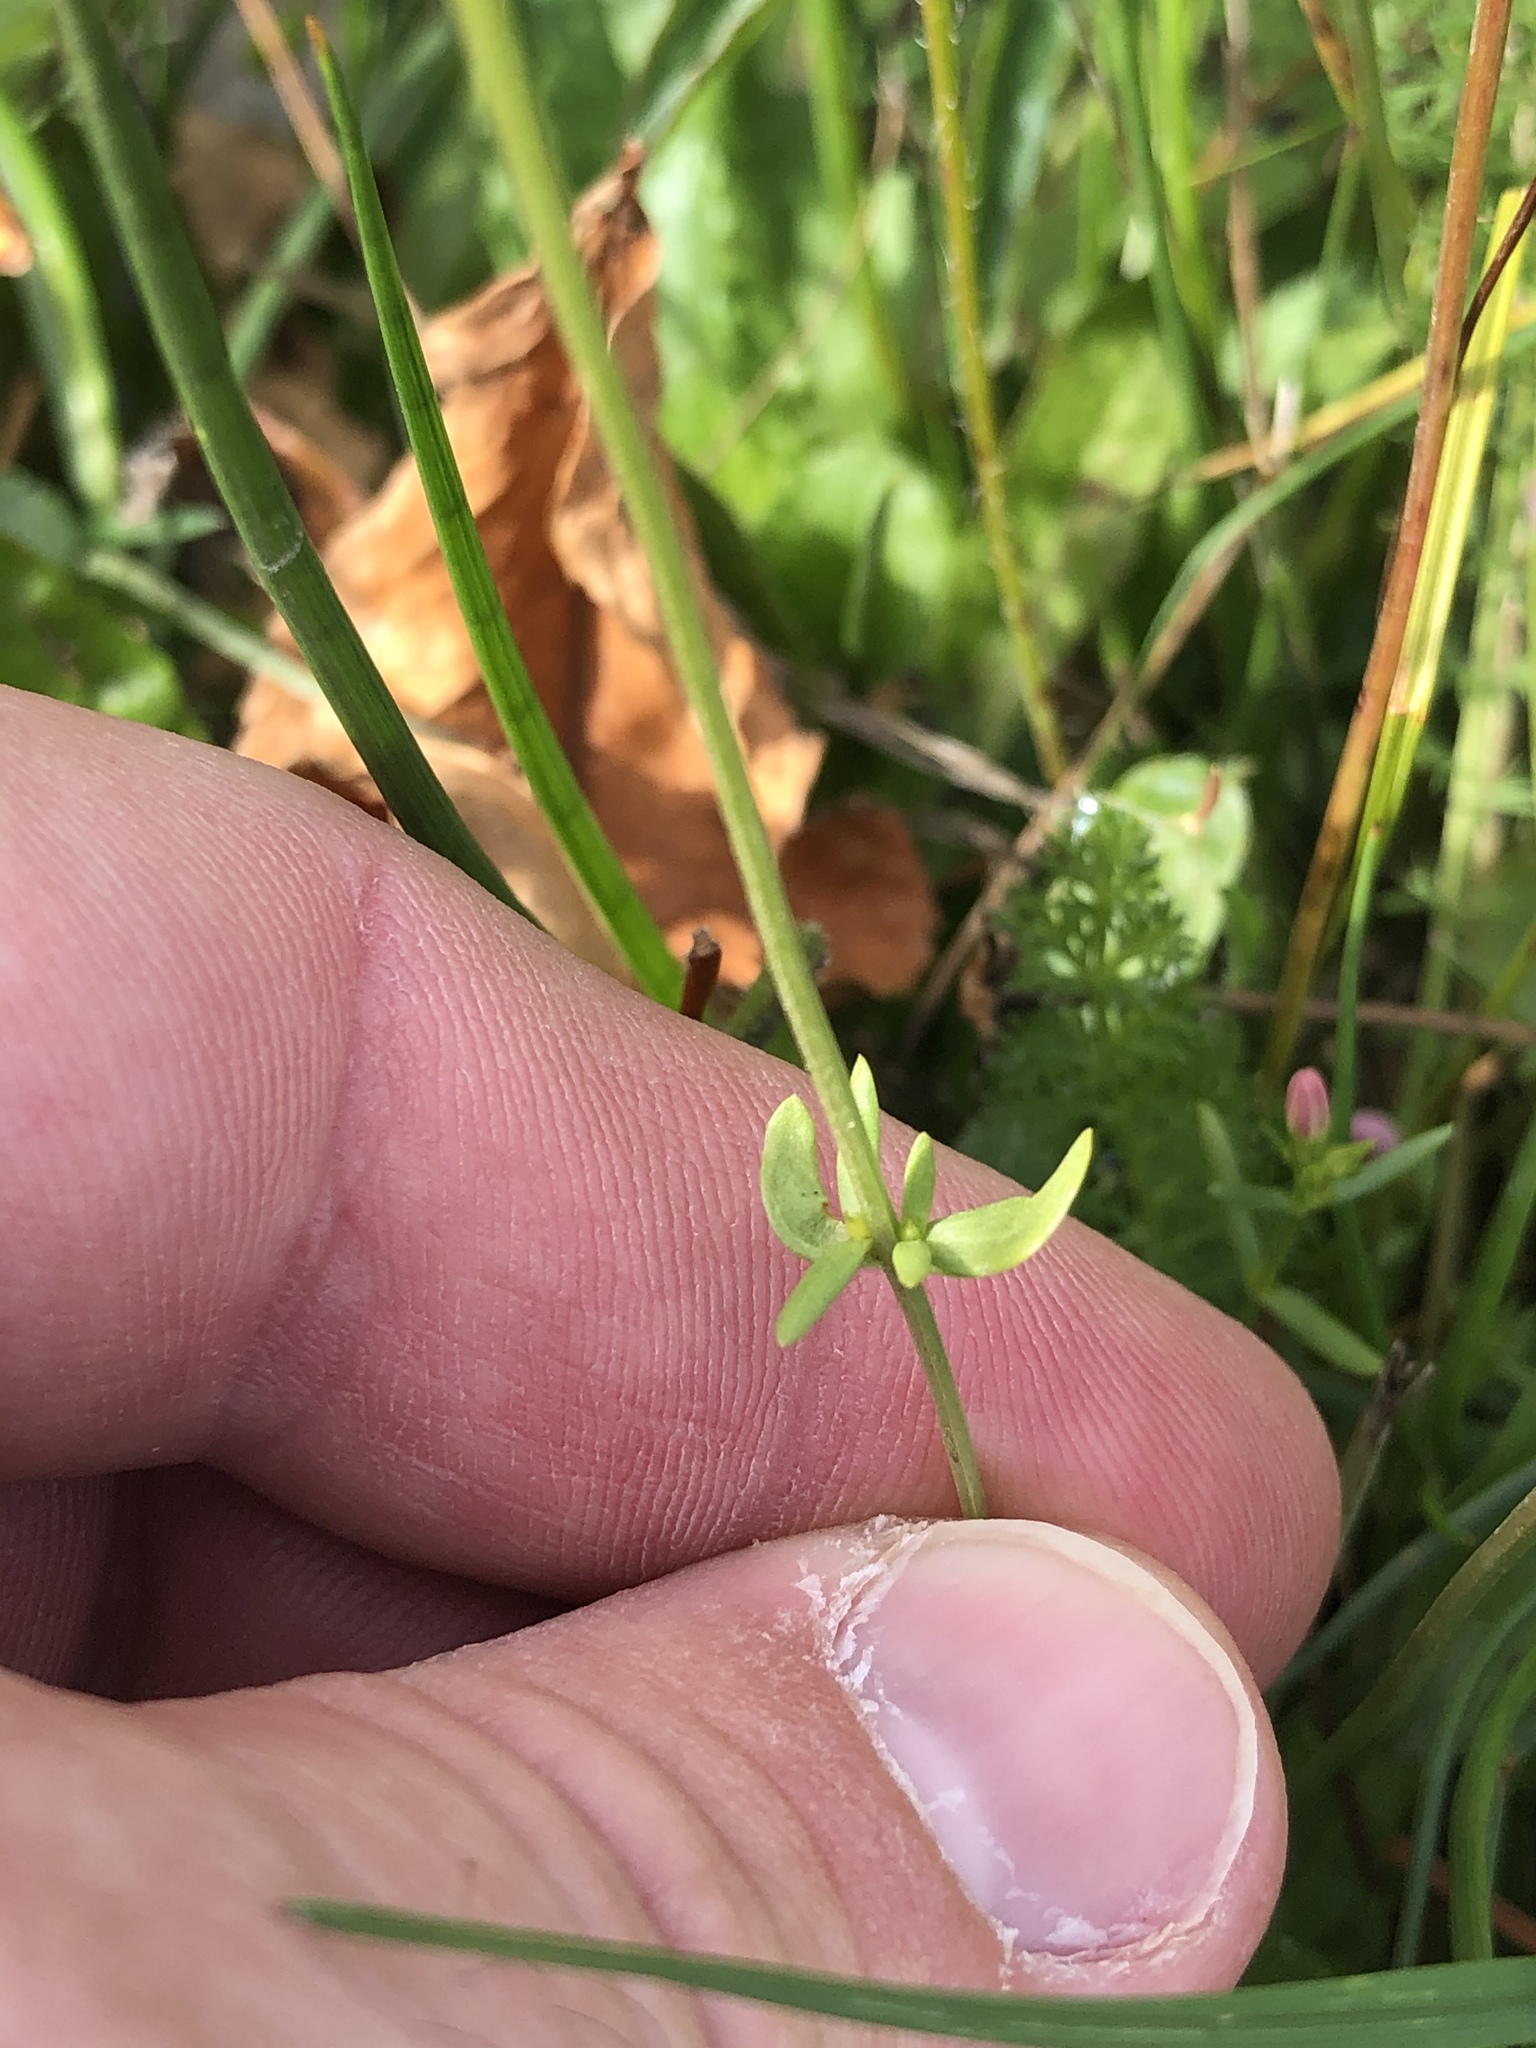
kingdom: Plantae
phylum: Tracheophyta
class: Magnoliopsida
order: Gentianales
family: Gentianaceae
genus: Centaurium
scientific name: Centaurium erythraea
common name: Common centaury
